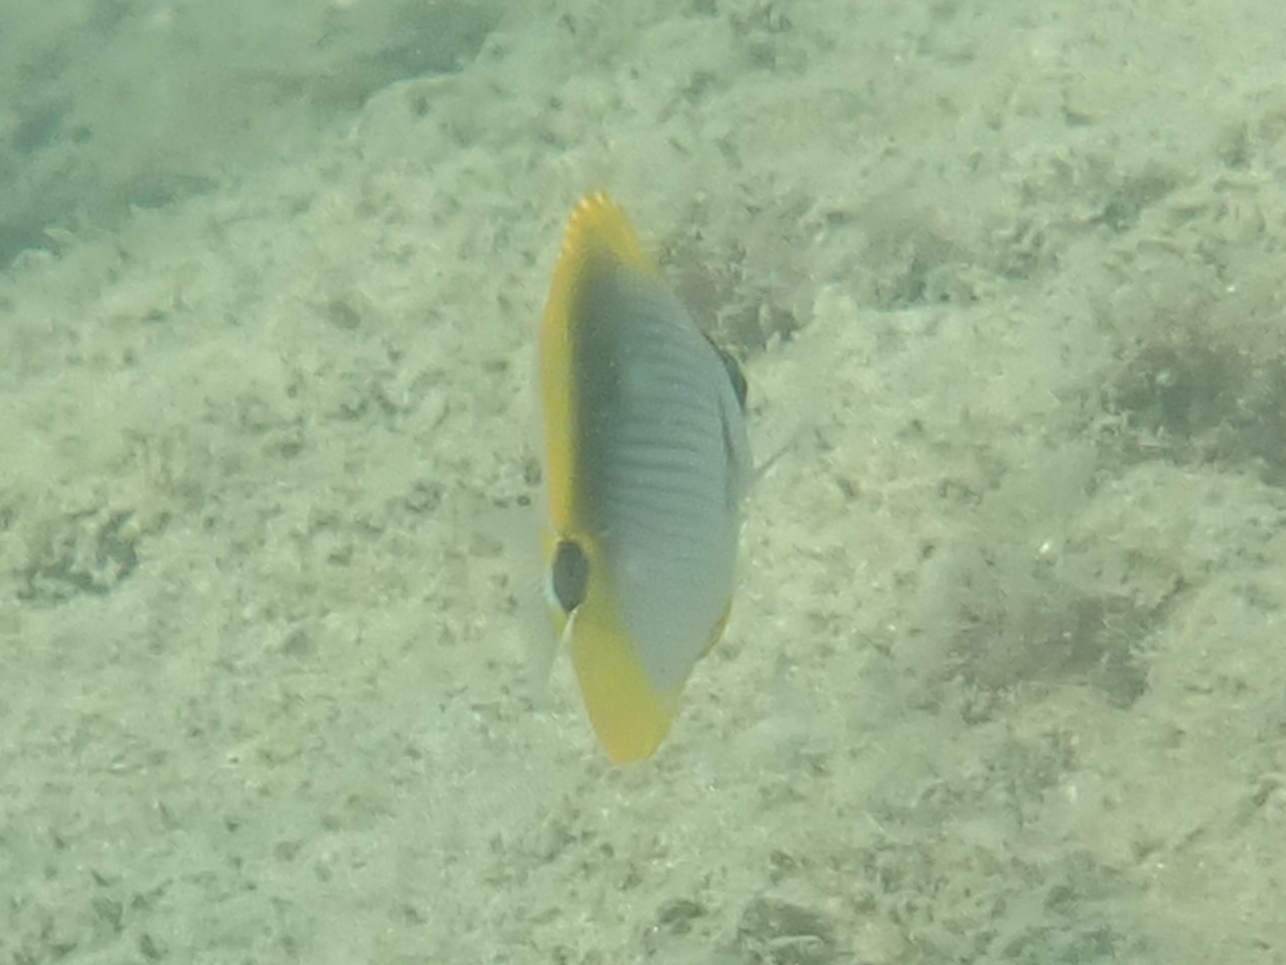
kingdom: Animalia
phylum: Chordata
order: Perciformes
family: Chaetodontidae
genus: Chaetodon
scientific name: Chaetodon melannotus
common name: Blackback butterflyfish
